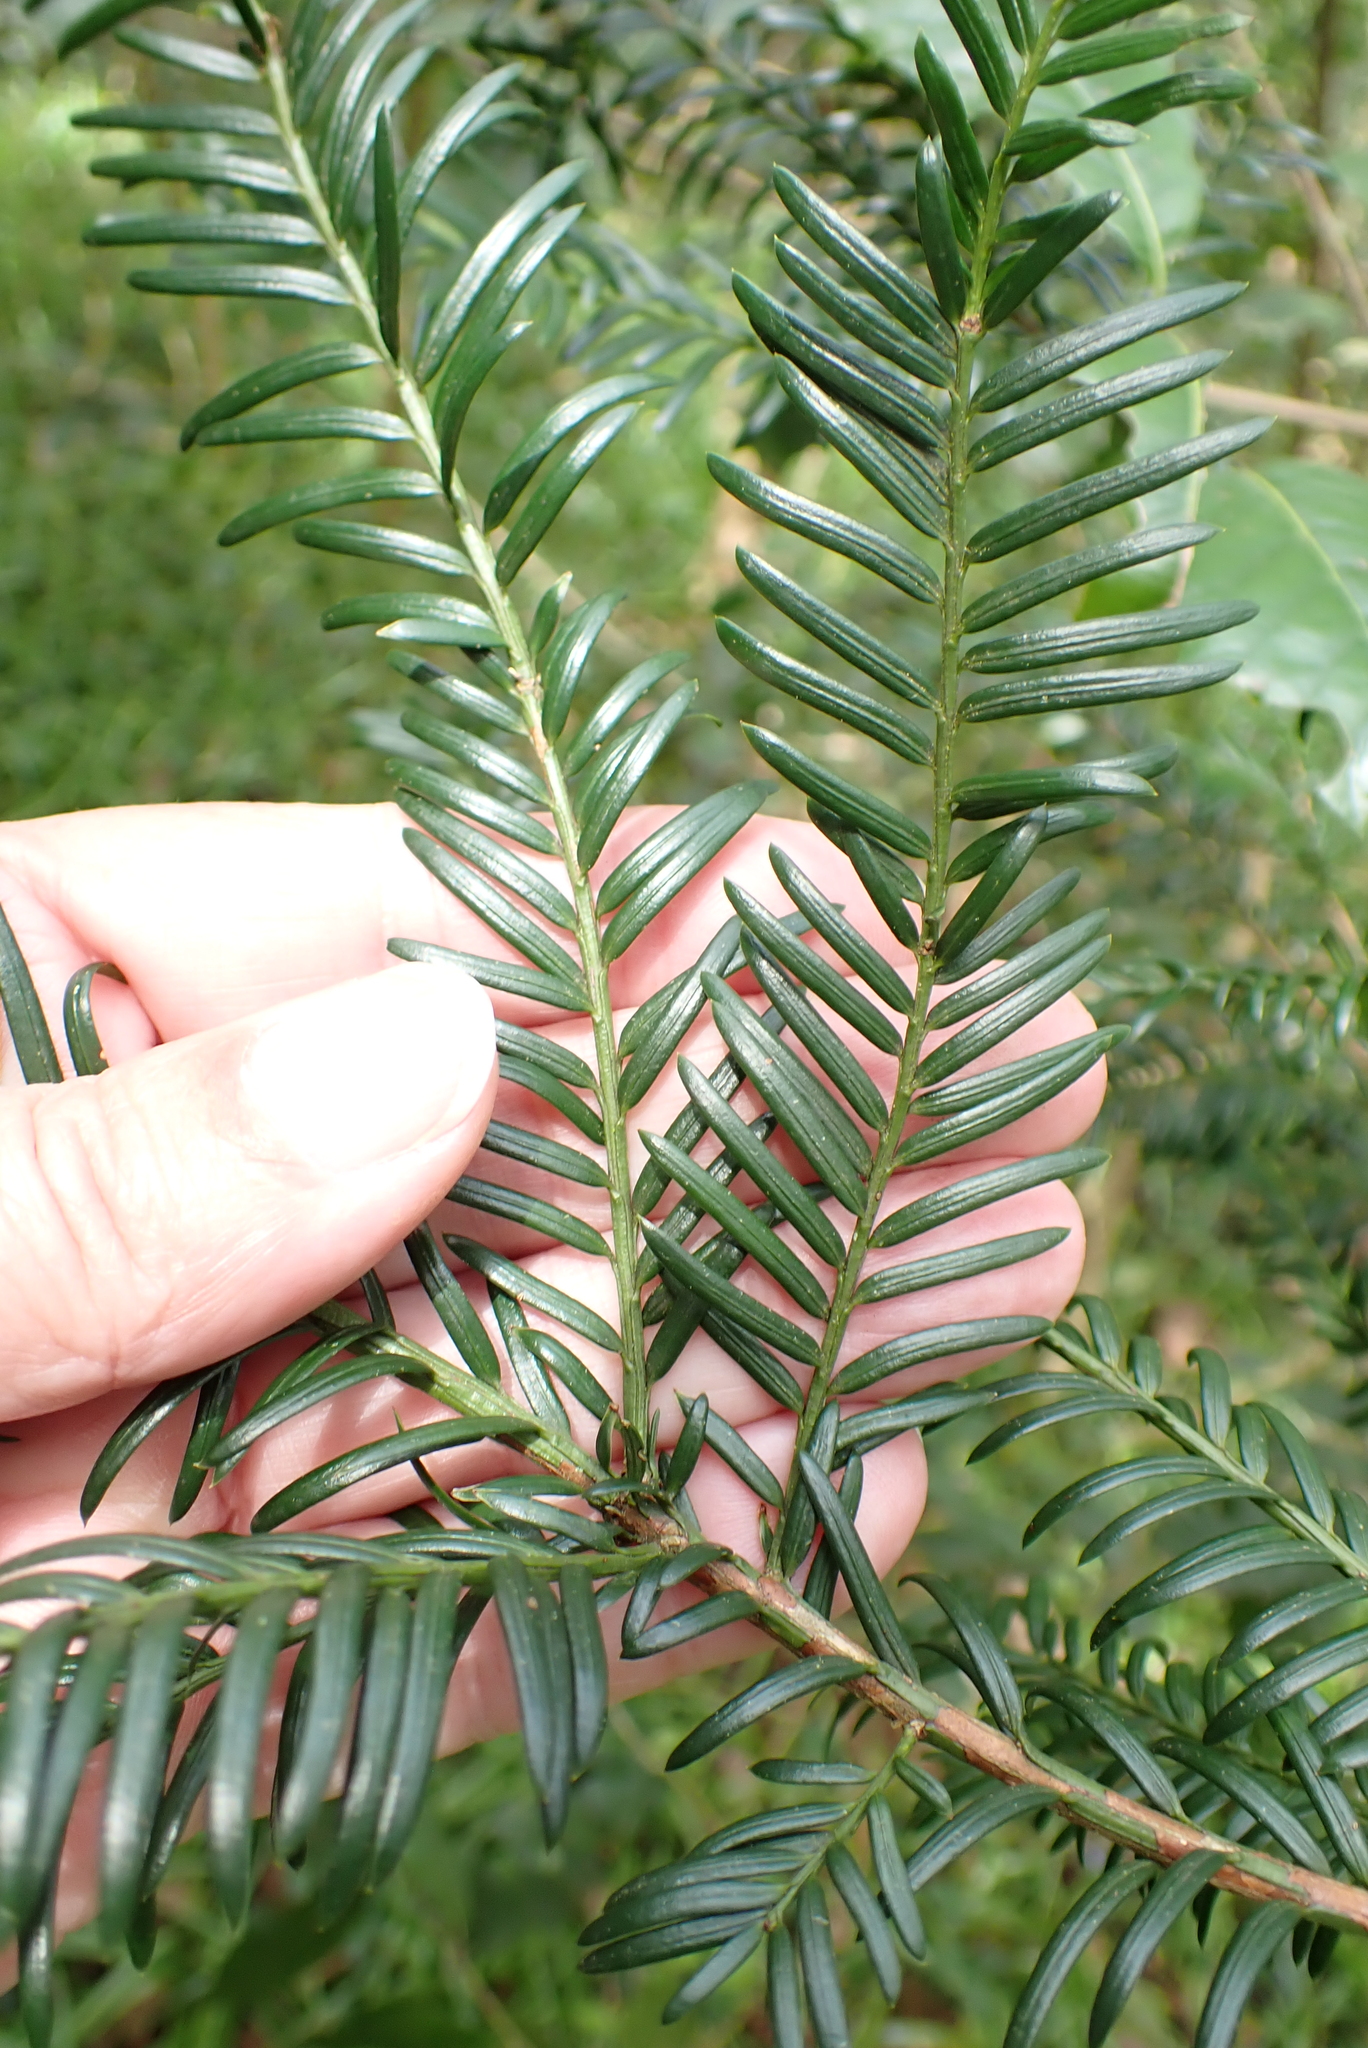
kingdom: Plantae
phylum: Tracheophyta
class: Pinopsida
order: Pinales
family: Taxaceae
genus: Taxus
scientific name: Taxus baccata
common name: Yew
